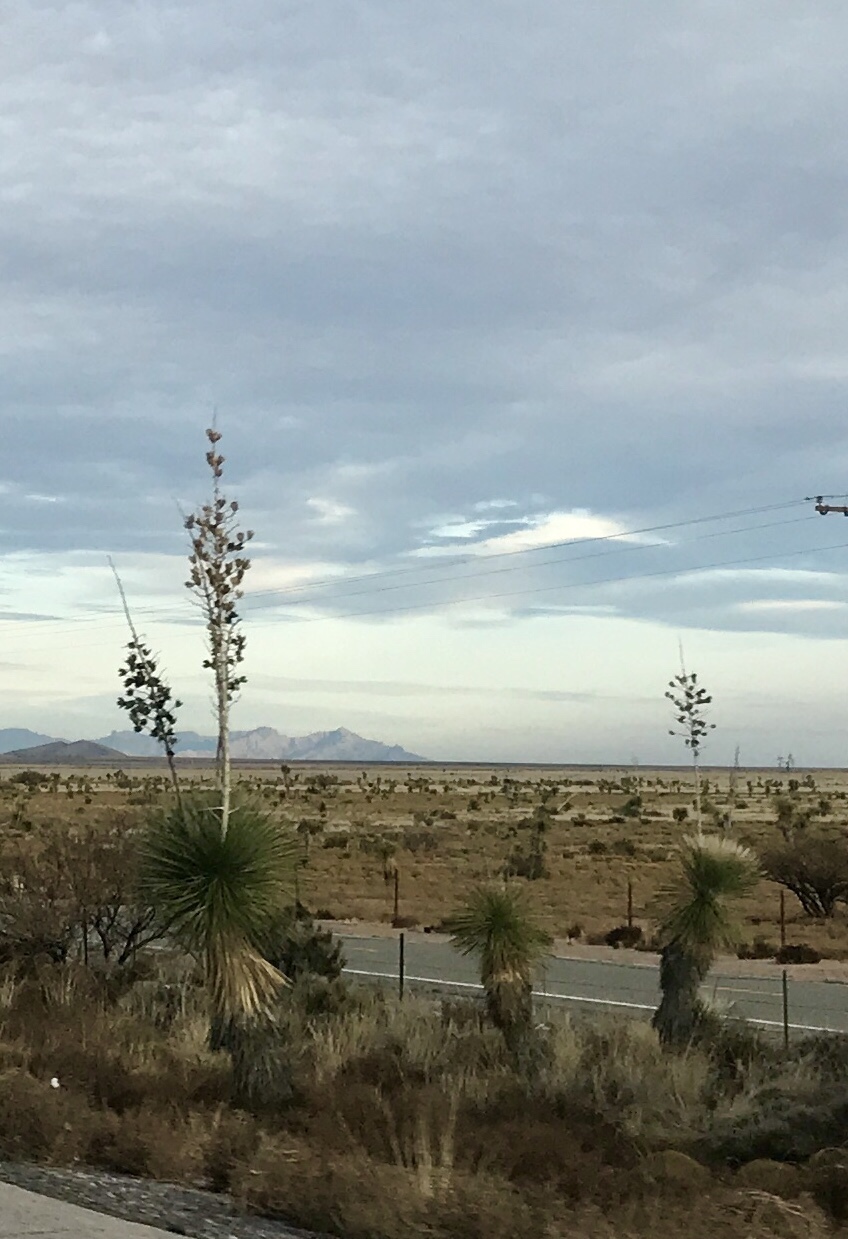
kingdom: Plantae
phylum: Tracheophyta
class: Liliopsida
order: Asparagales
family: Asparagaceae
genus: Yucca
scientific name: Yucca elata
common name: Palmella
